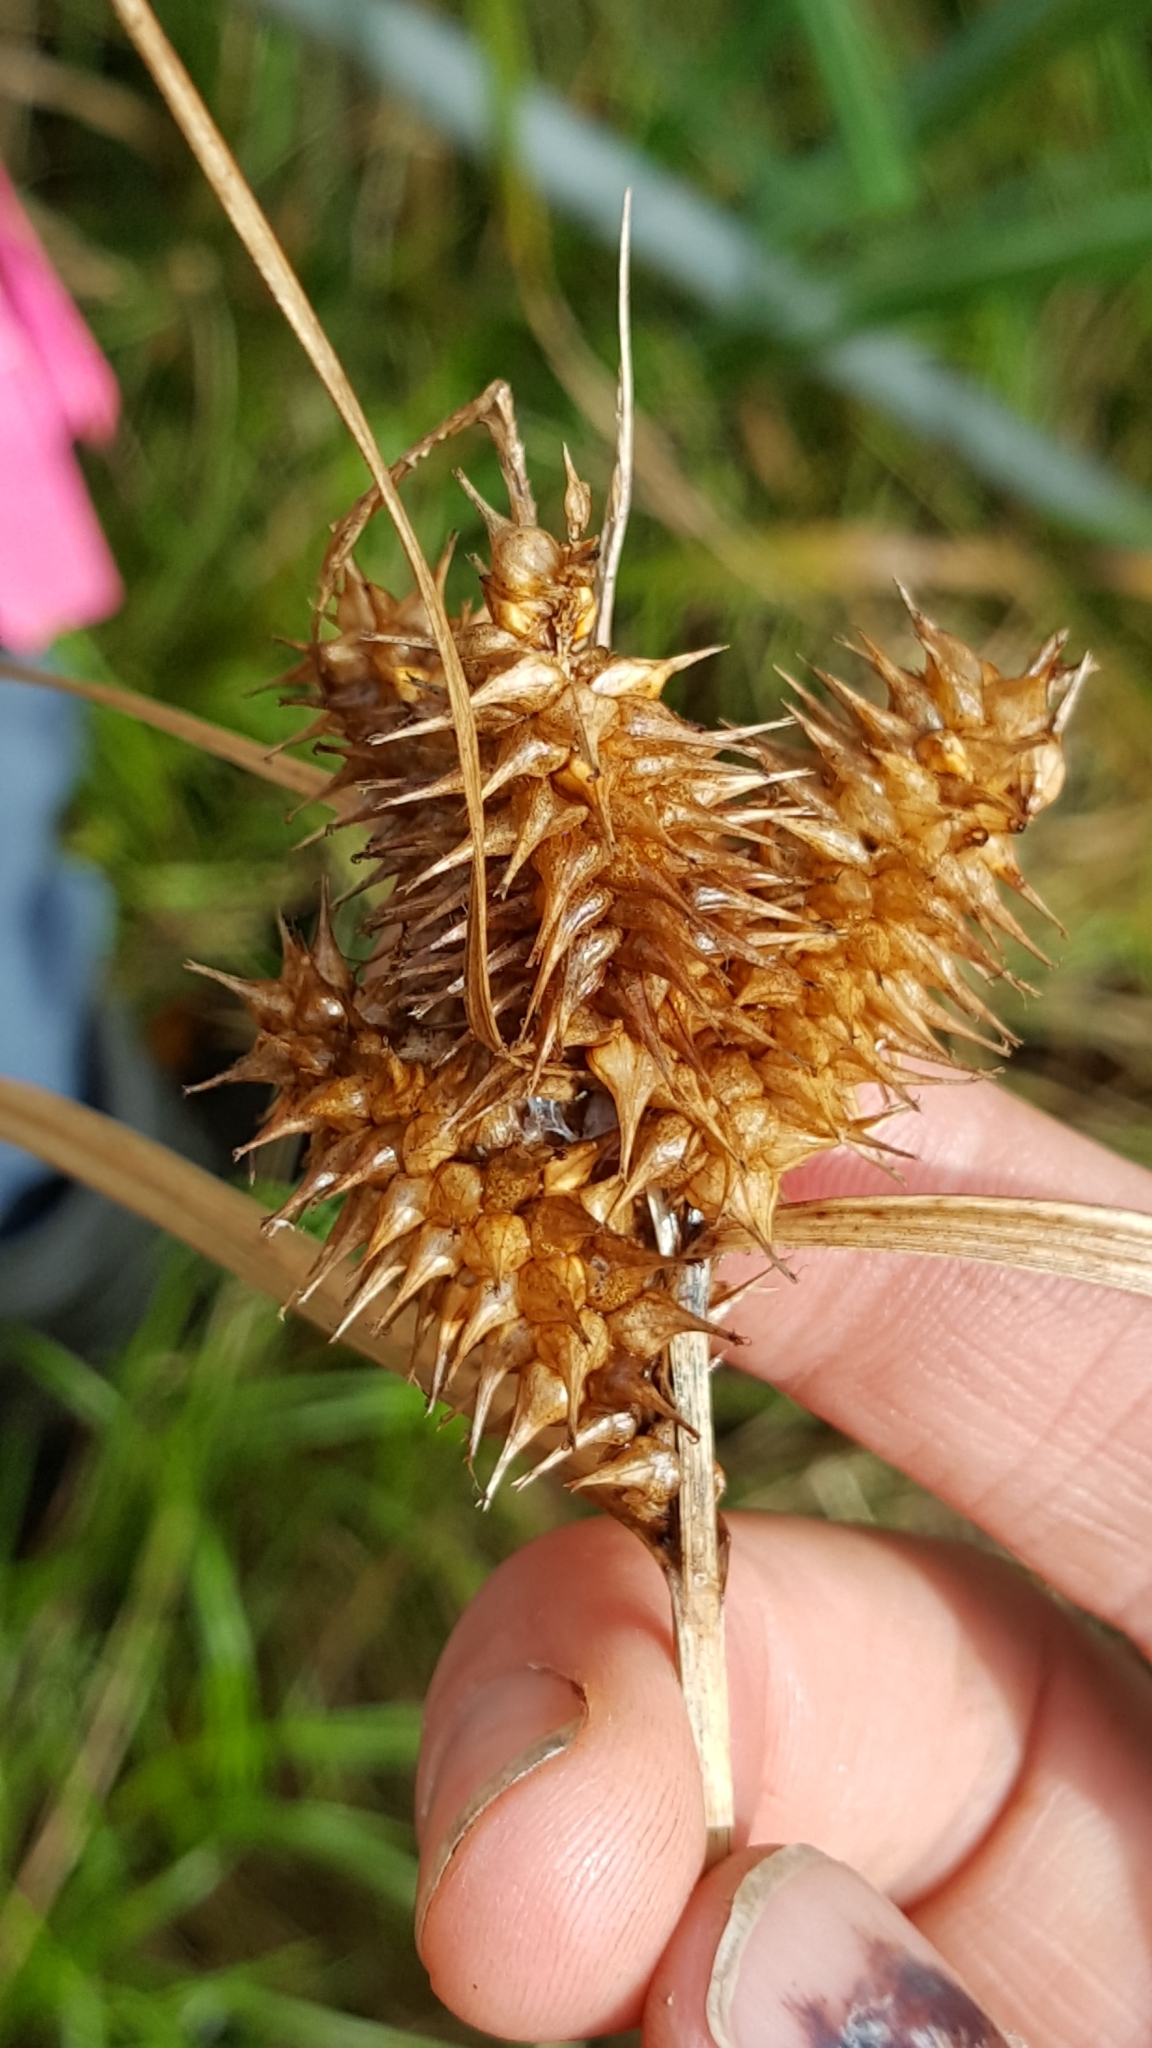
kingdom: Plantae
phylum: Tracheophyta
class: Liliopsida
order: Poales
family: Cyperaceae
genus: Carex
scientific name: Carex retrorsa
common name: Knot-sheath sedge
